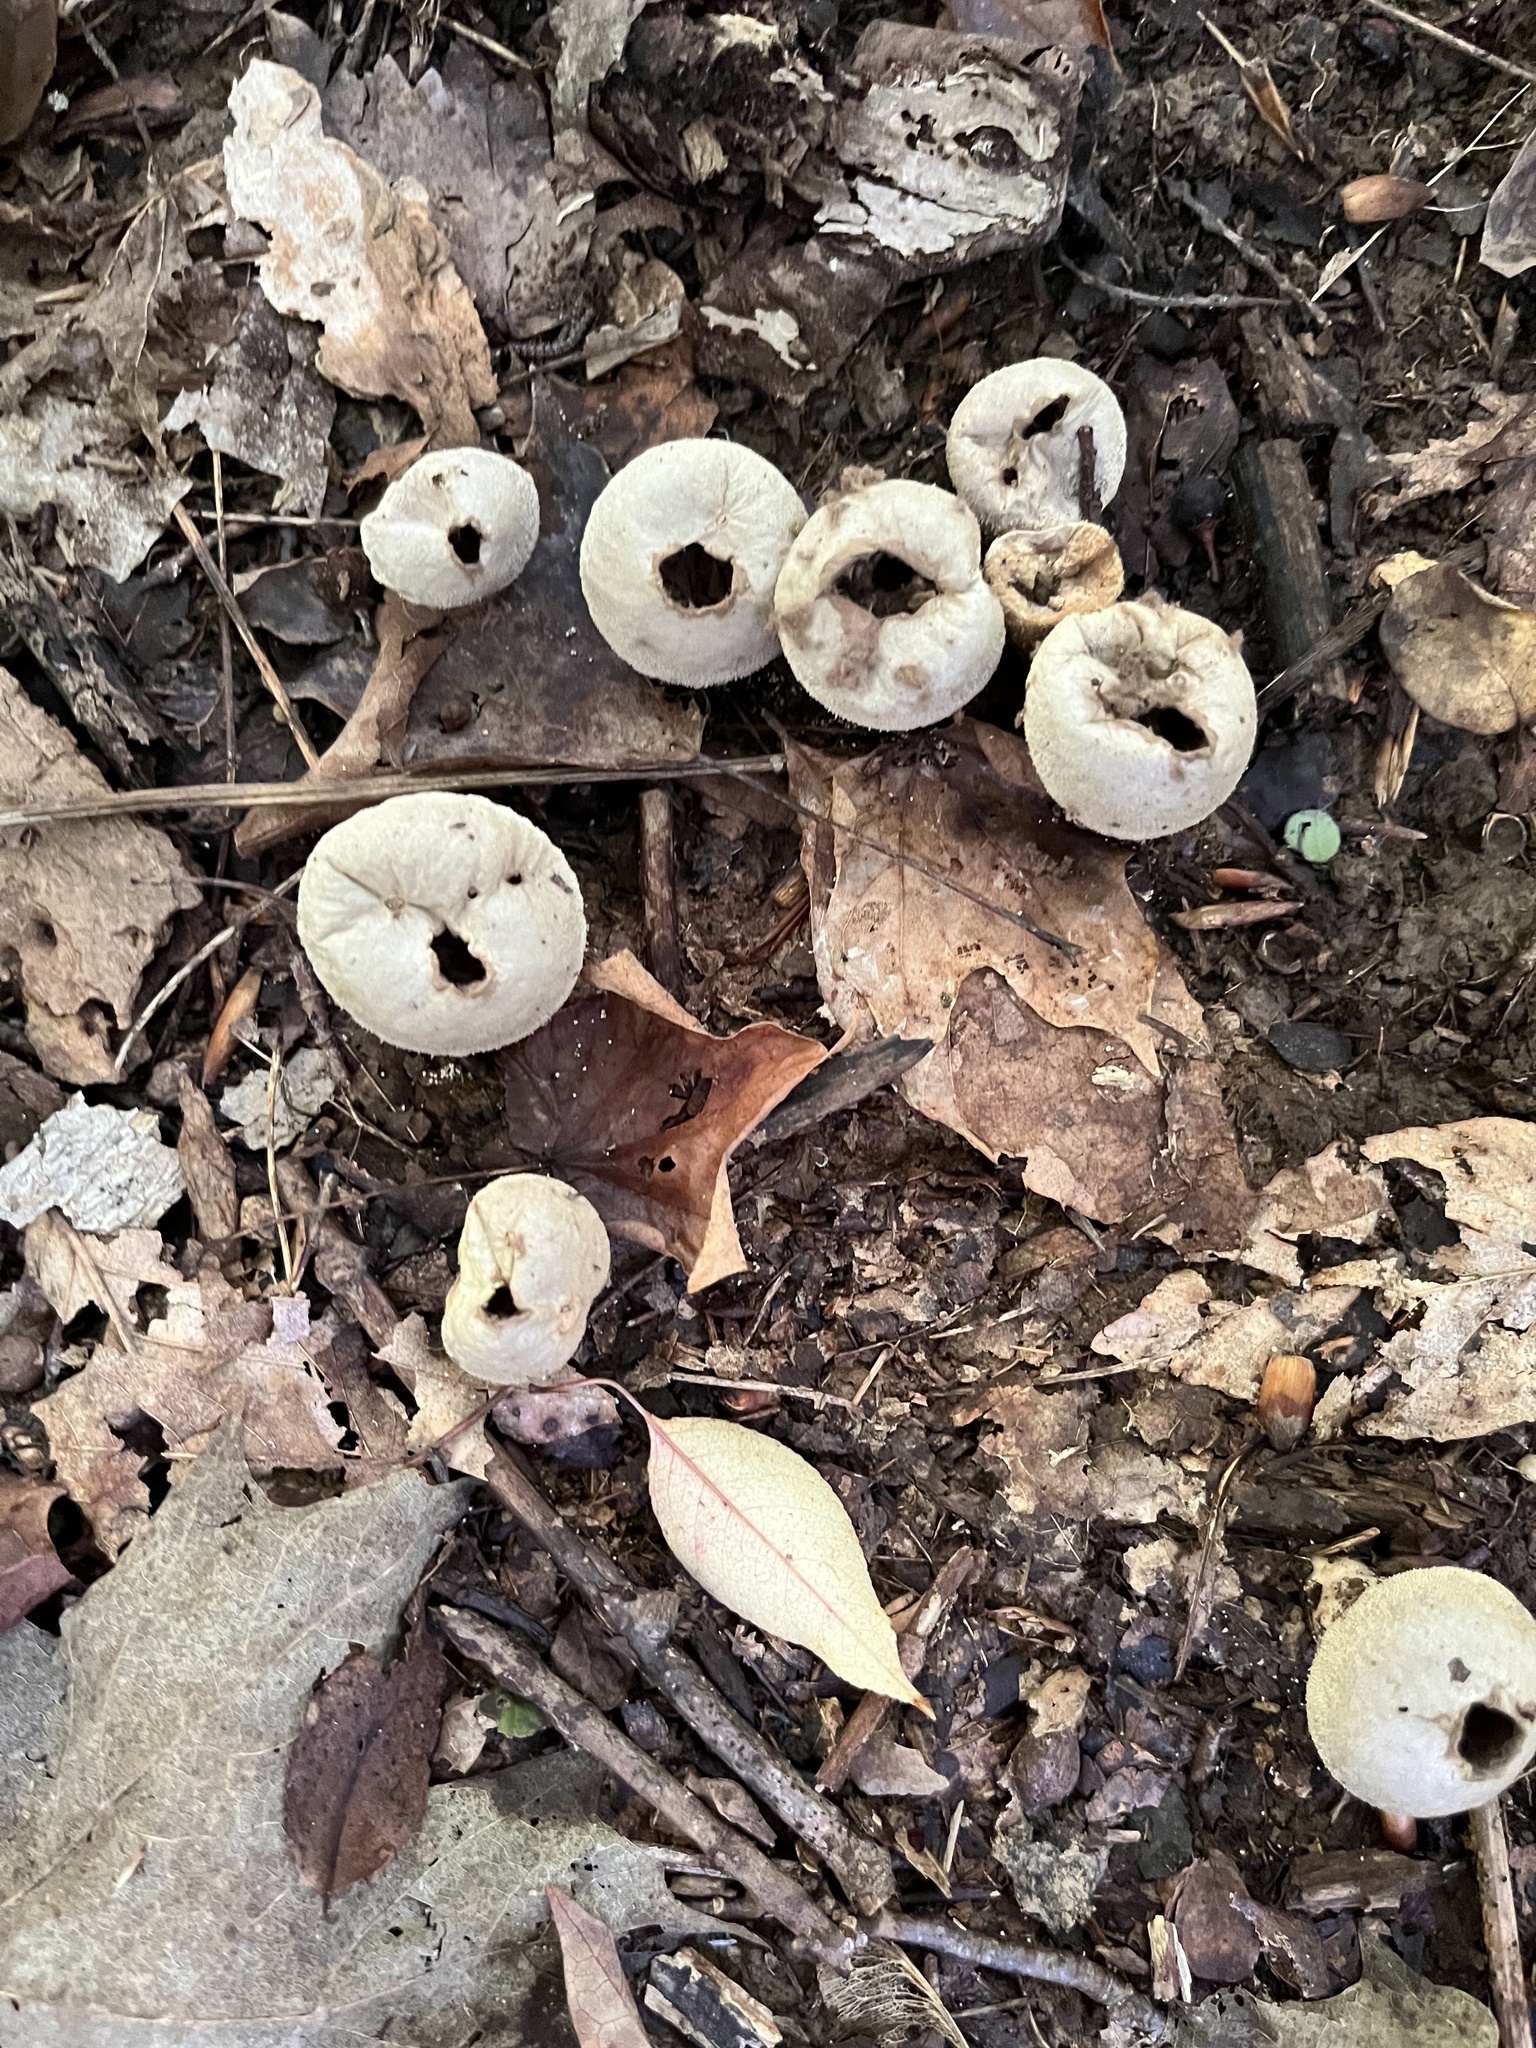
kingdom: Fungi
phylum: Basidiomycota
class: Agaricomycetes
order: Agaricales
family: Lycoperdaceae
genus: Lycoperdon
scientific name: Lycoperdon perlatum
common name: Common puffball
